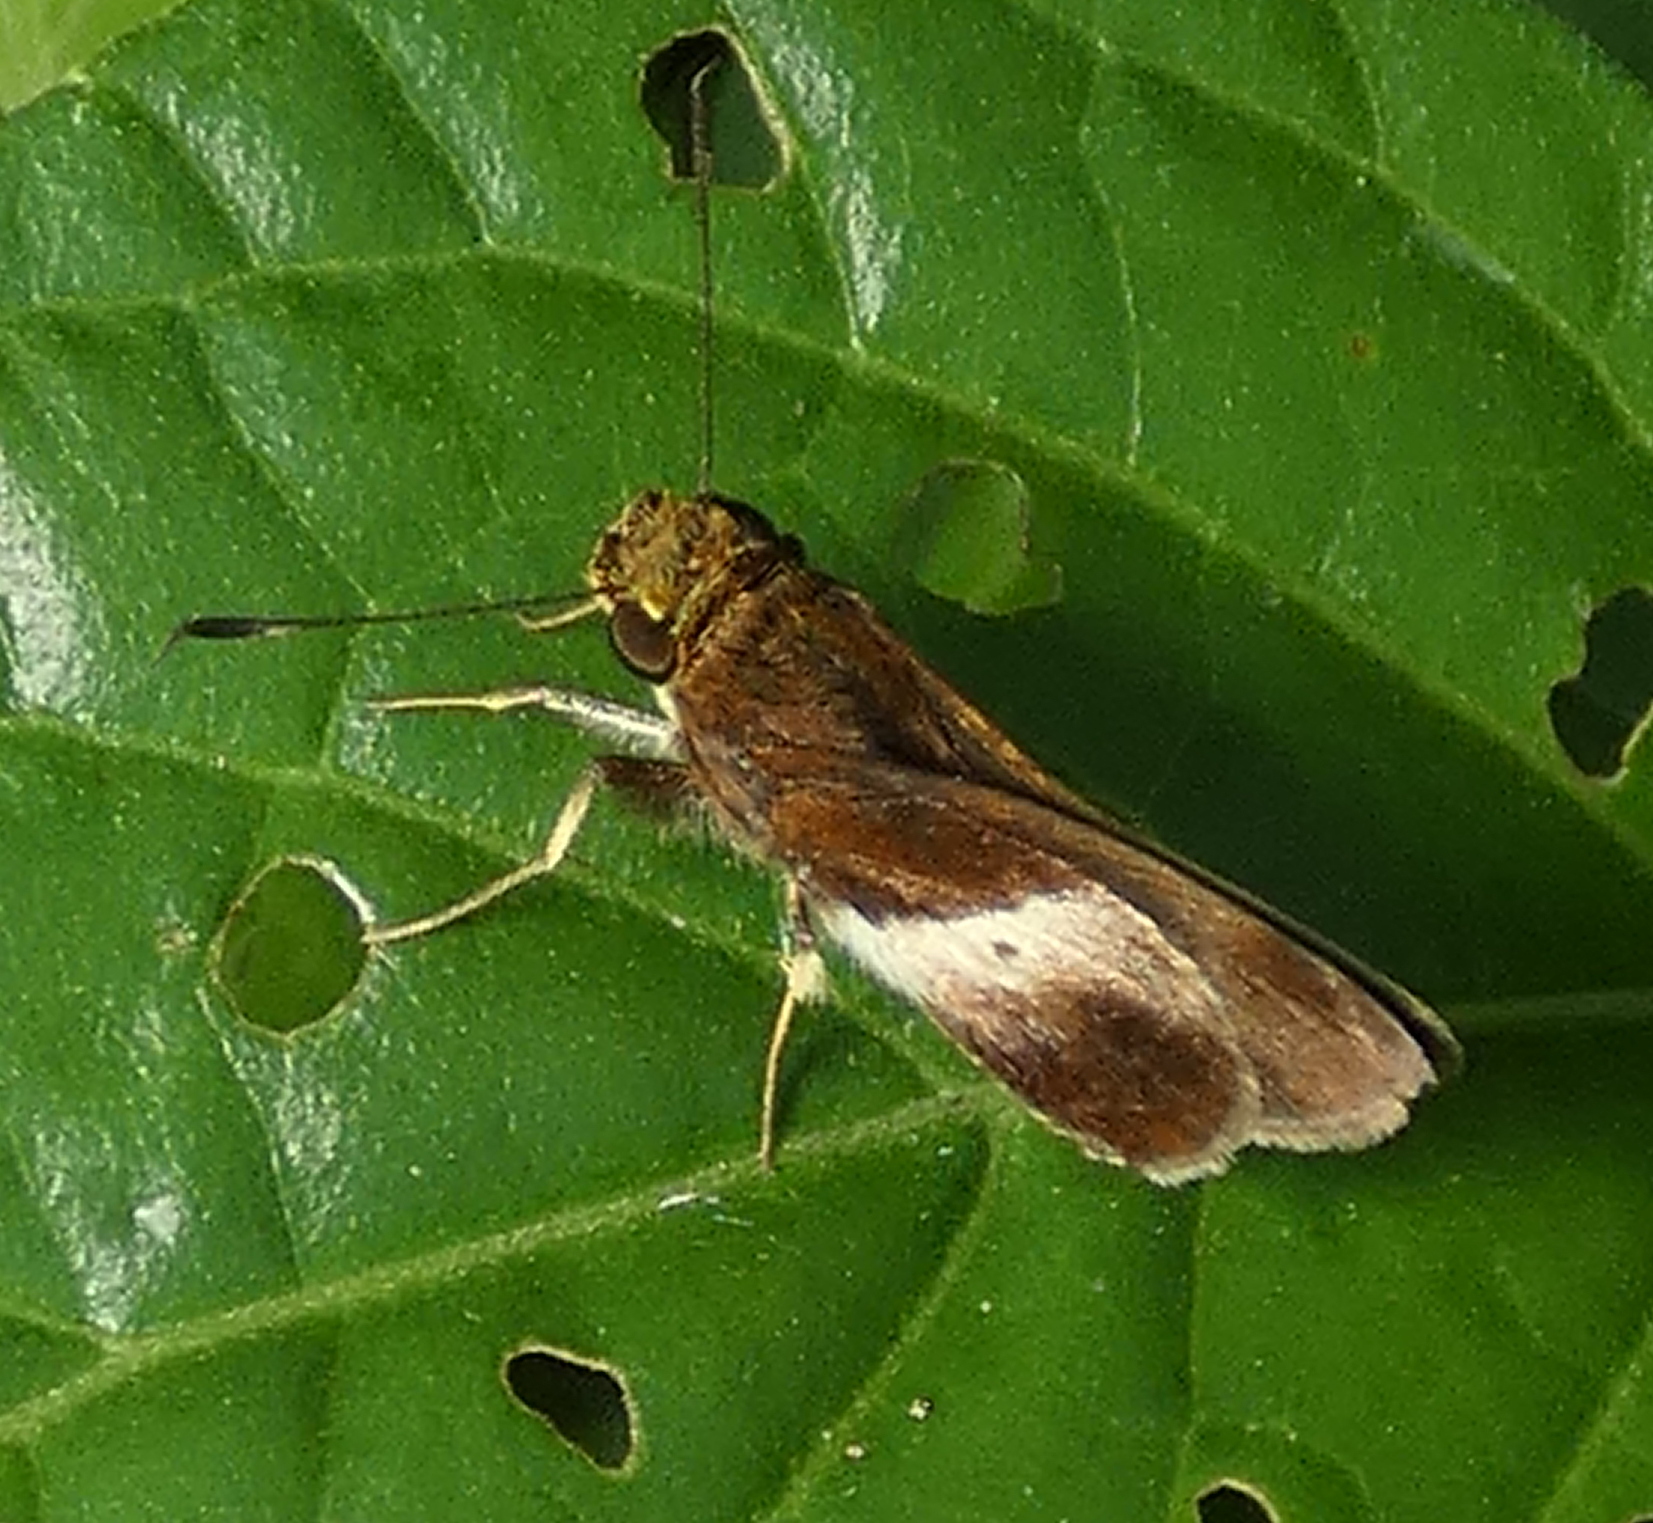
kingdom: Animalia
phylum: Arthropoda
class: Insecta
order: Lepidoptera
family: Hesperiidae
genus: Moeris
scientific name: Moeris remus
